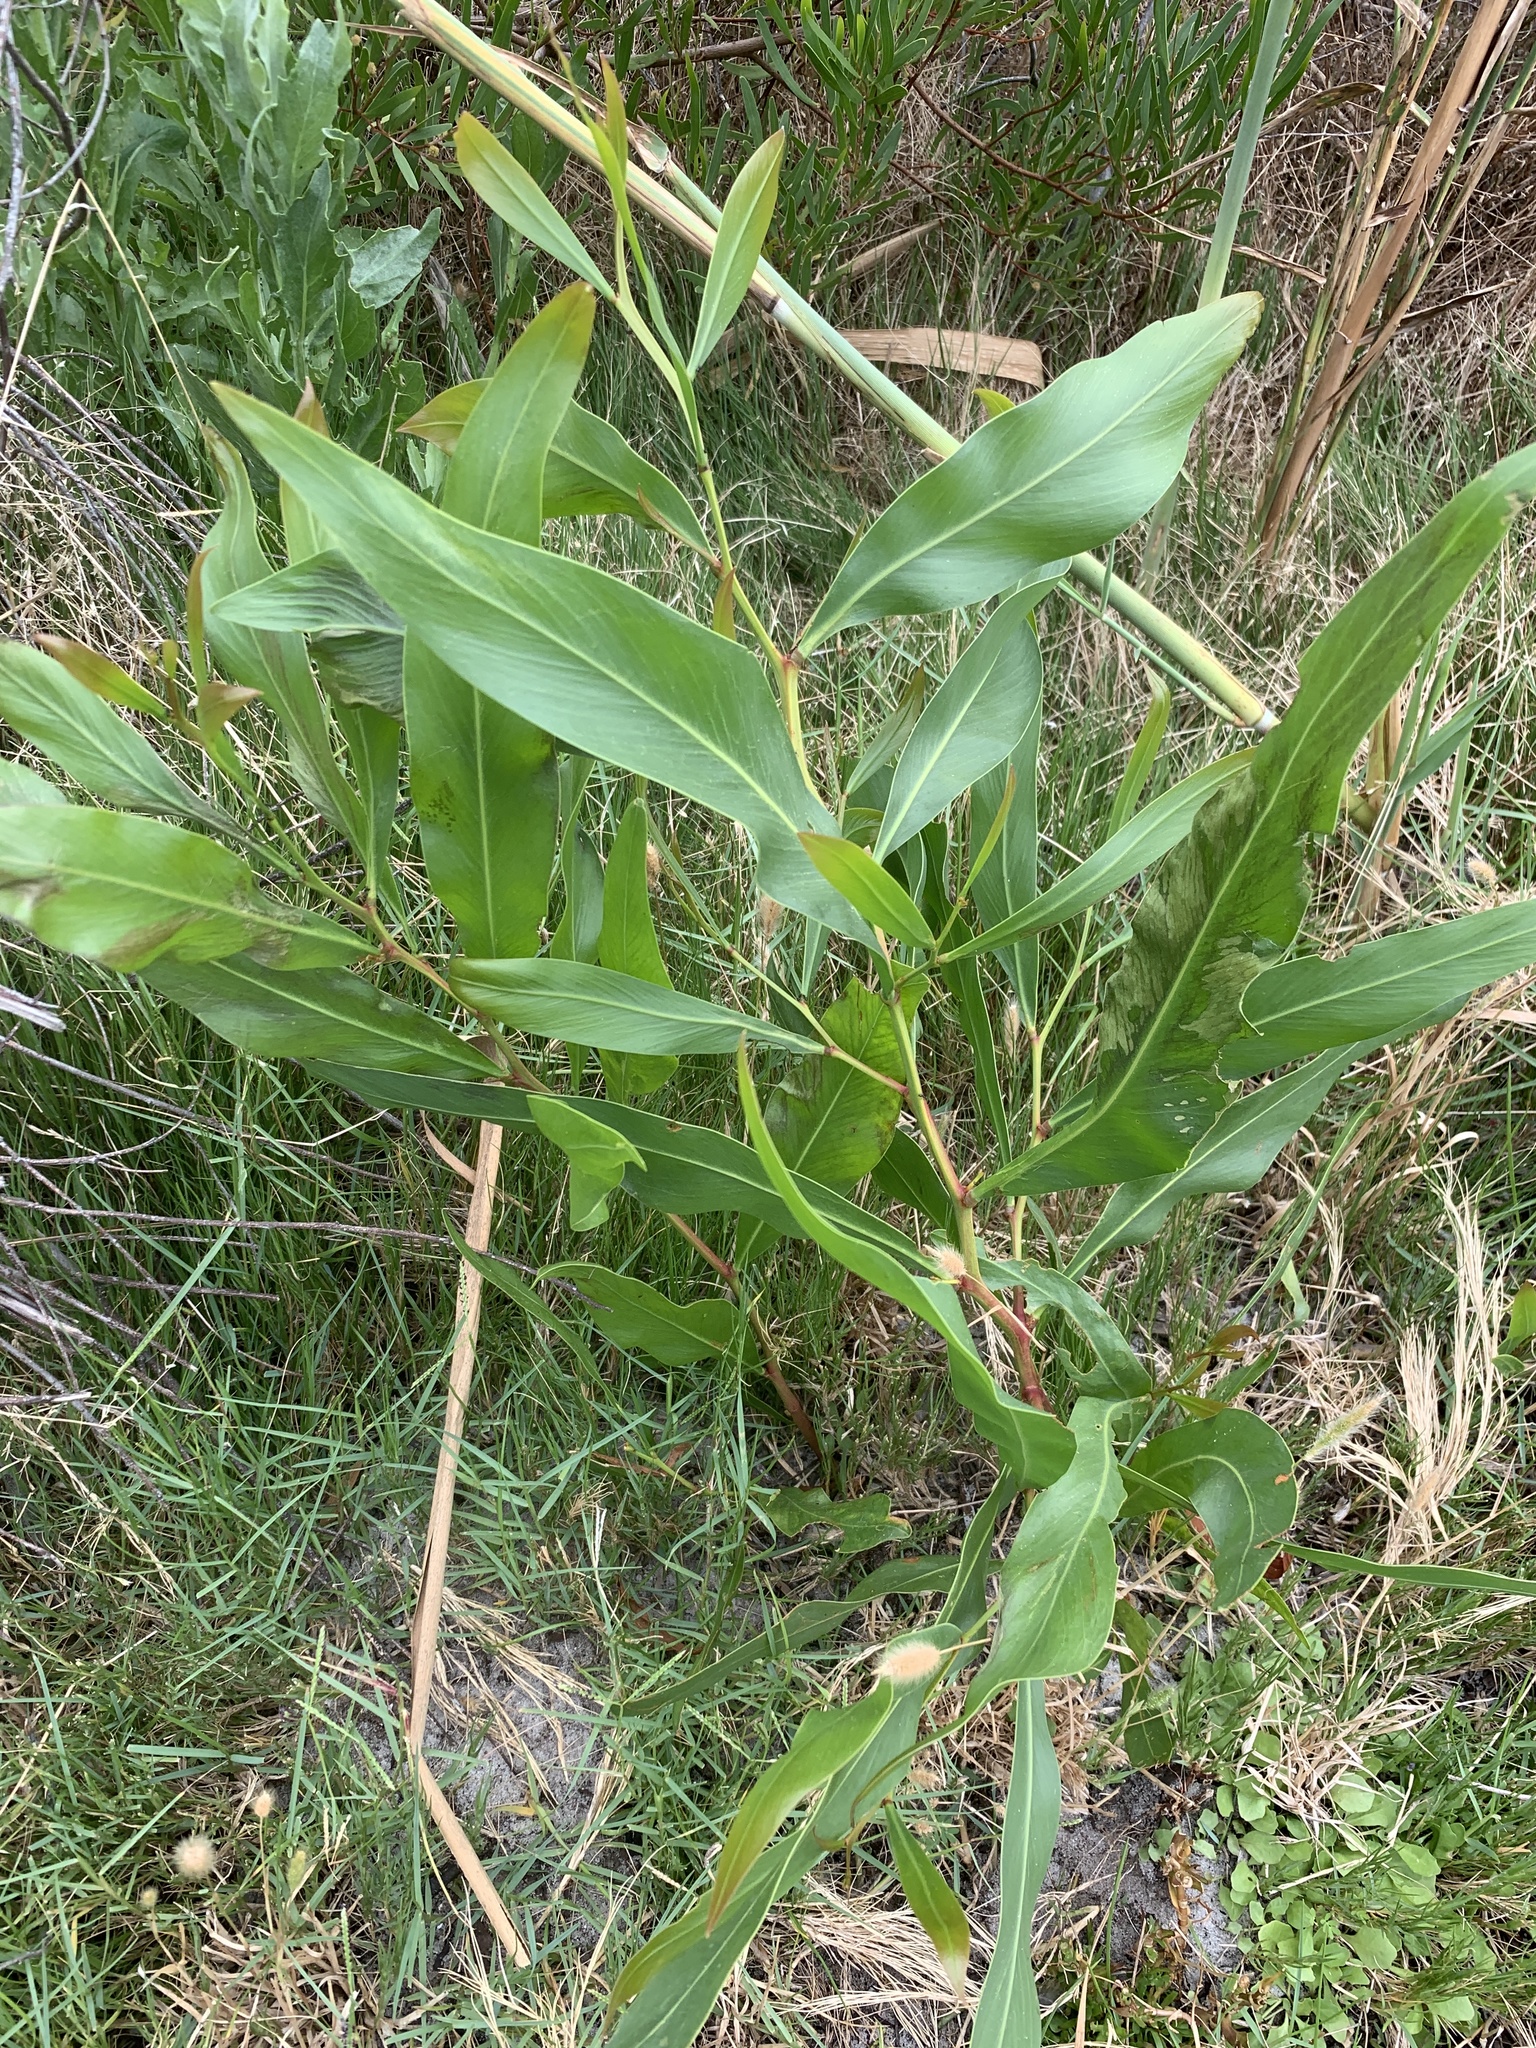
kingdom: Plantae
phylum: Tracheophyta
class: Magnoliopsida
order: Fabales
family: Fabaceae
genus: Acacia
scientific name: Acacia saligna
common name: Orange wattle
